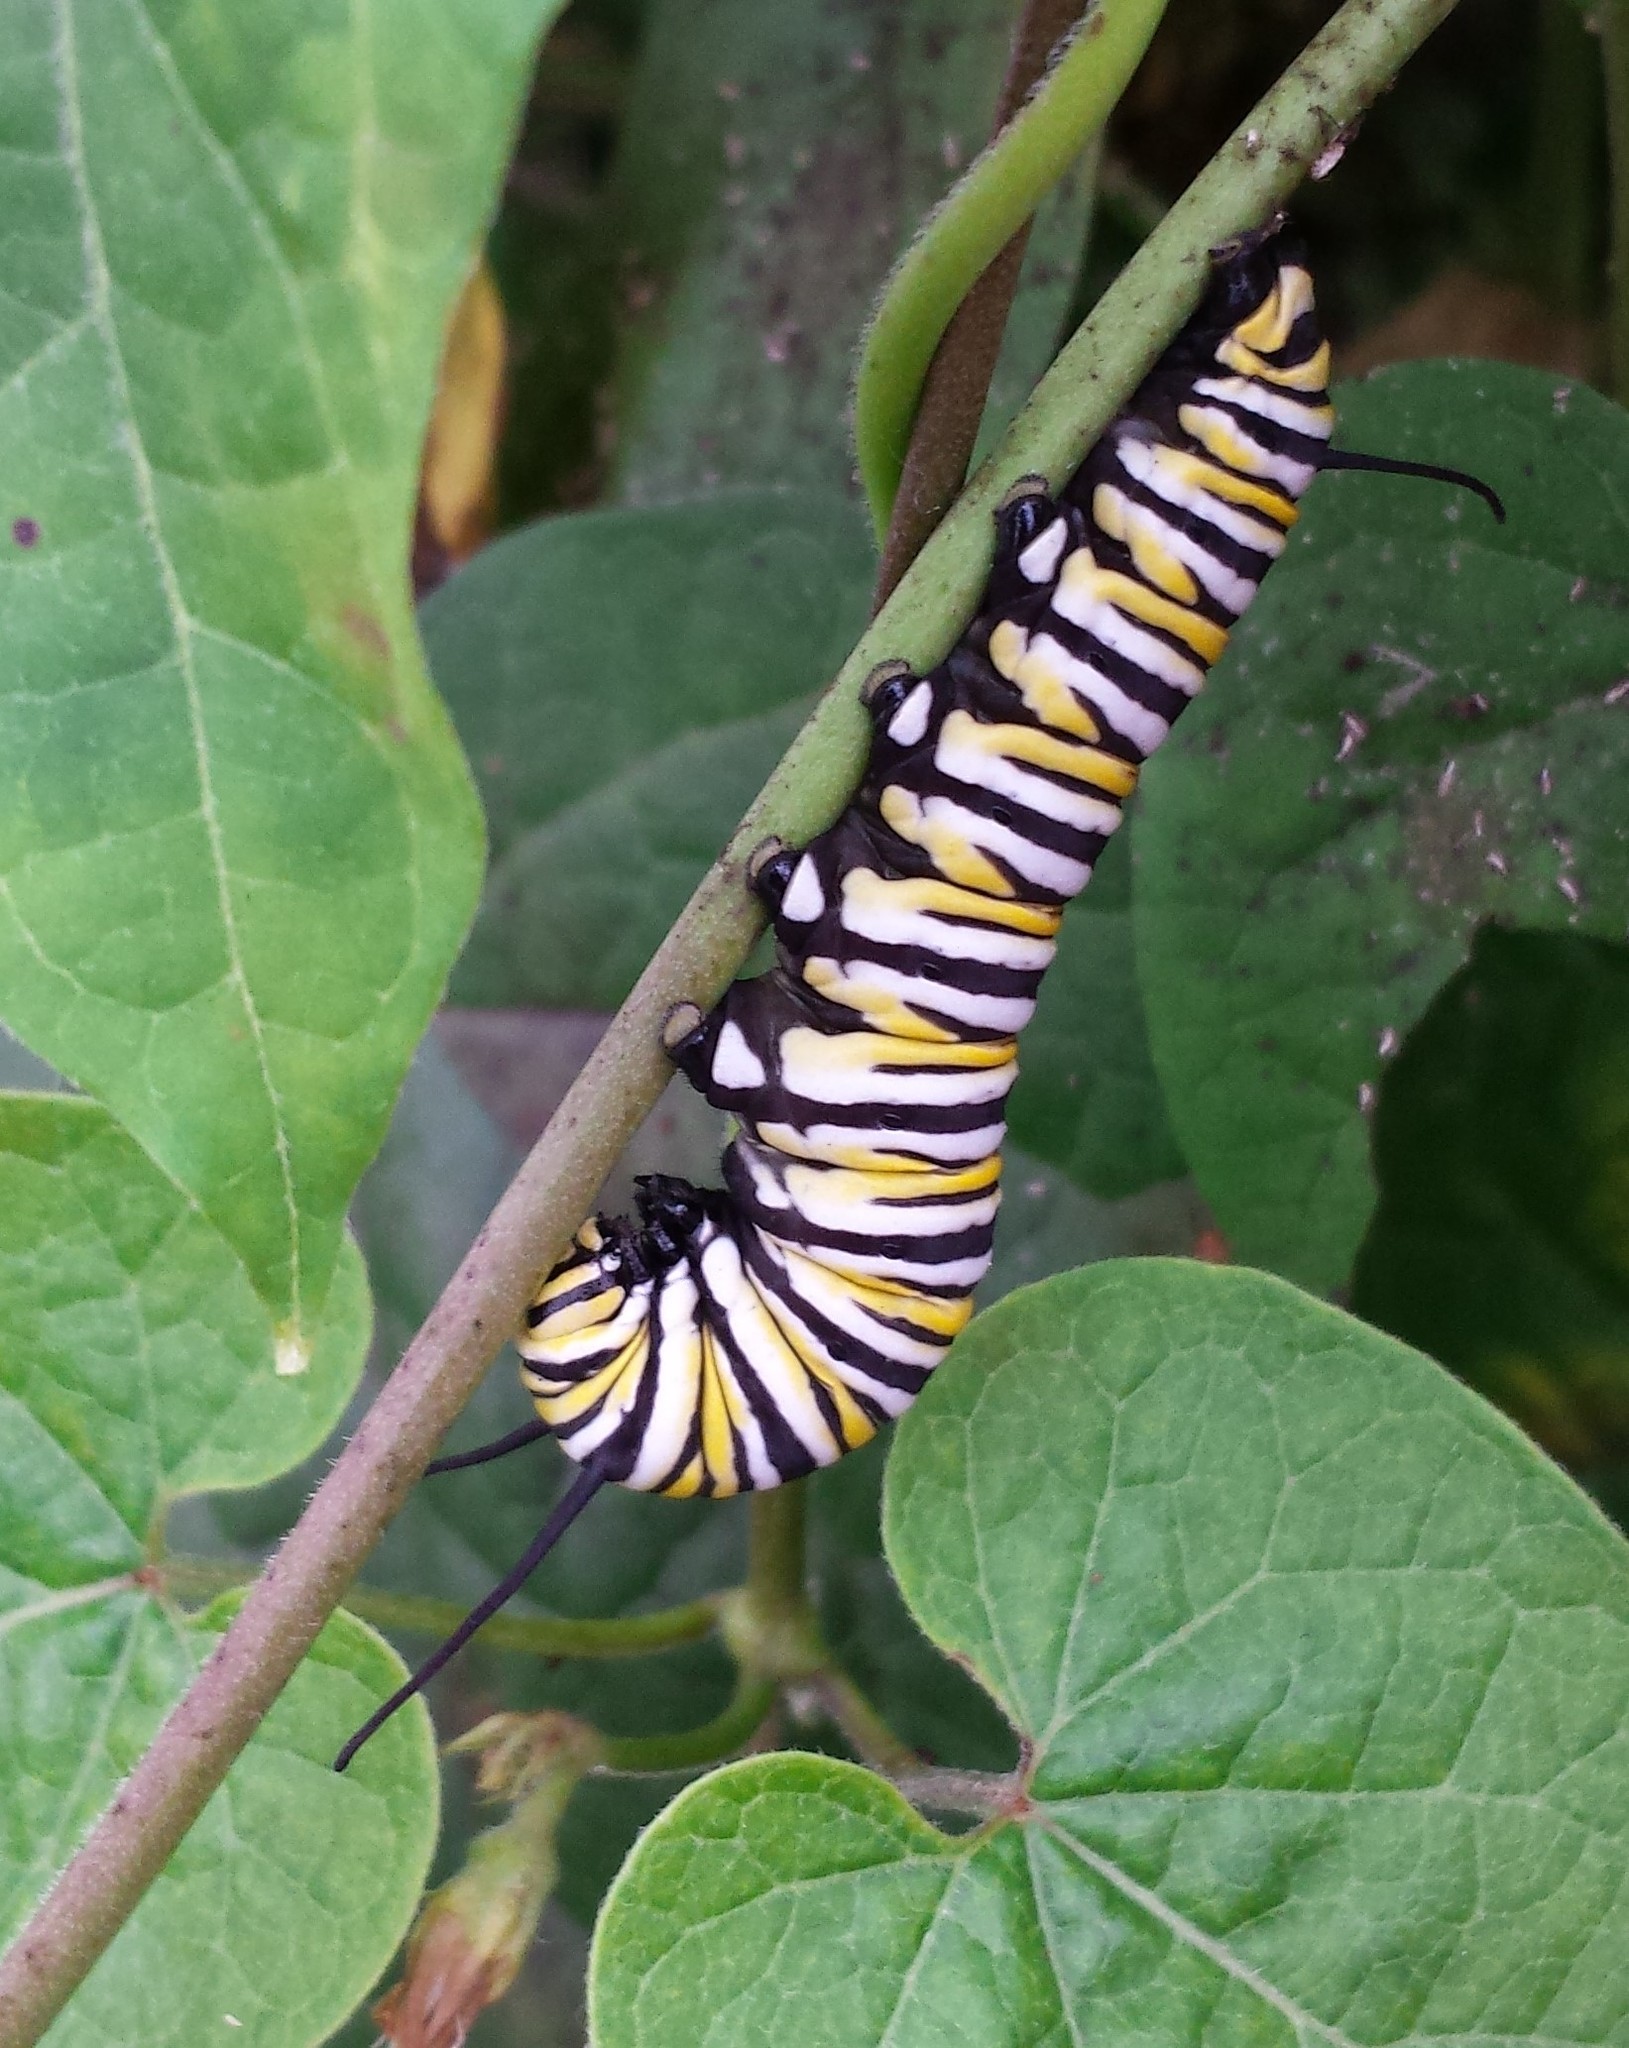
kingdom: Animalia
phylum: Arthropoda
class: Insecta
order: Lepidoptera
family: Nymphalidae
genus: Danaus
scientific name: Danaus plexippus
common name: Monarch
